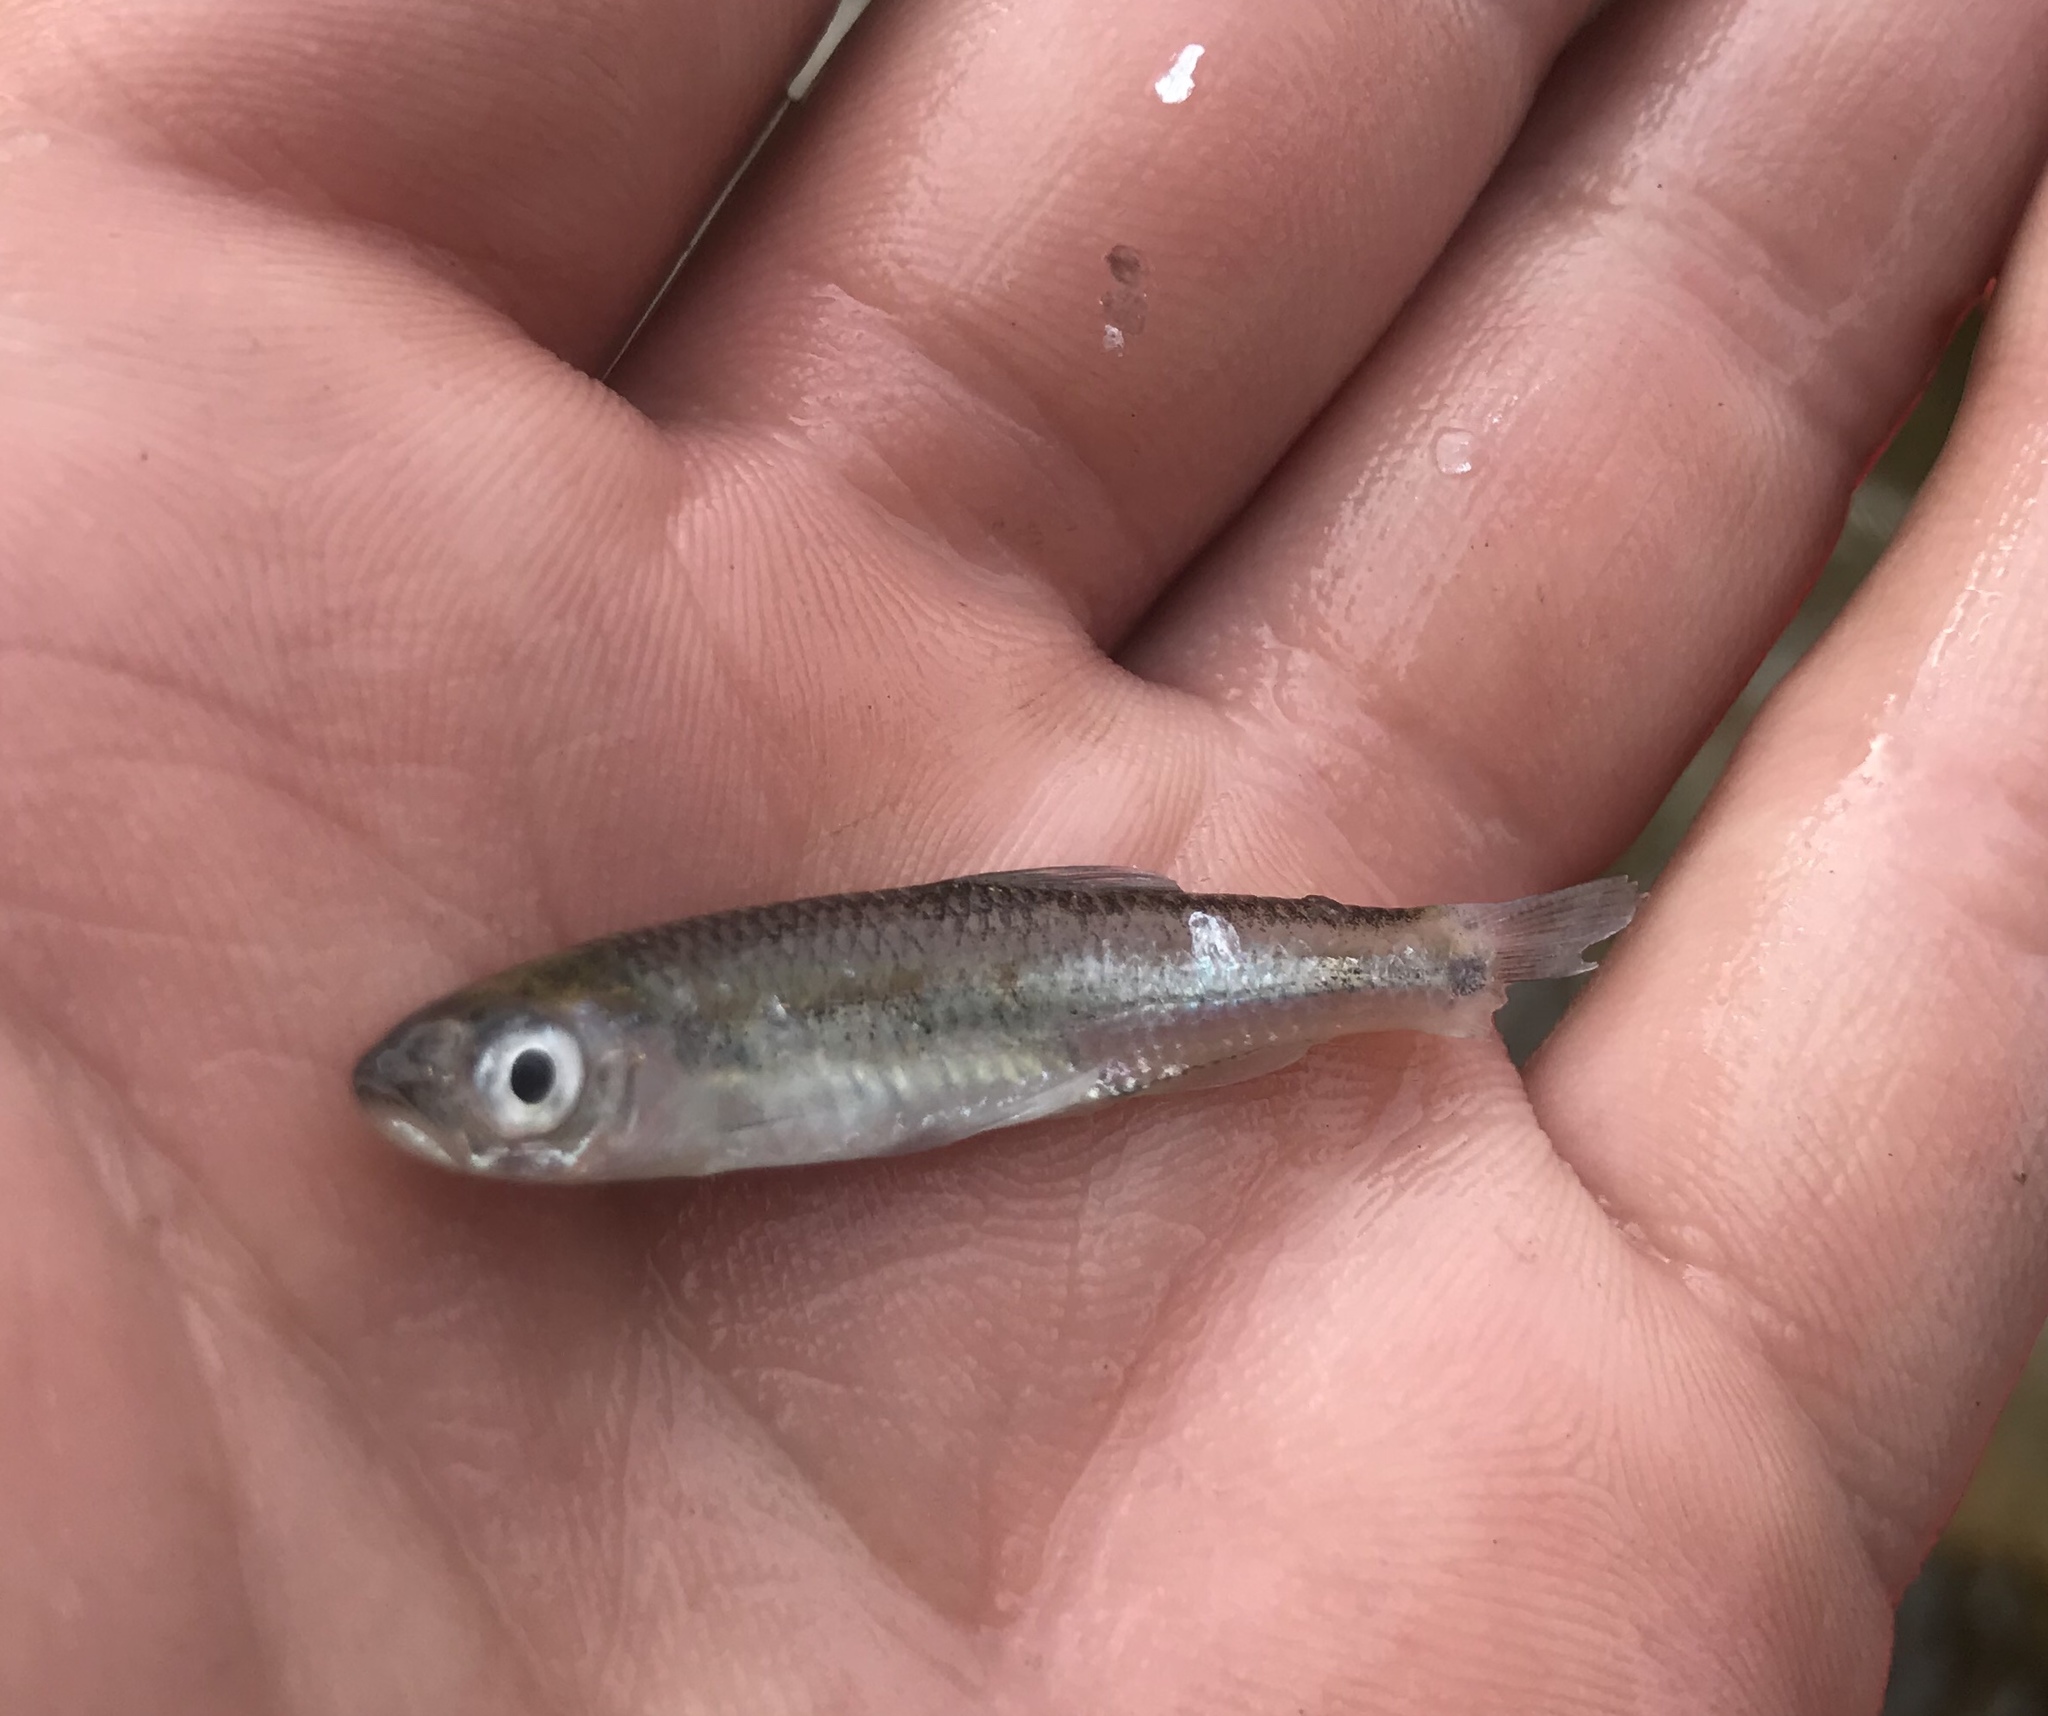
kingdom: Animalia
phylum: Chordata
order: Cypriniformes
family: Cyprinidae
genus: Notropis
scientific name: Notropis amabilis
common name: Texas shiner
